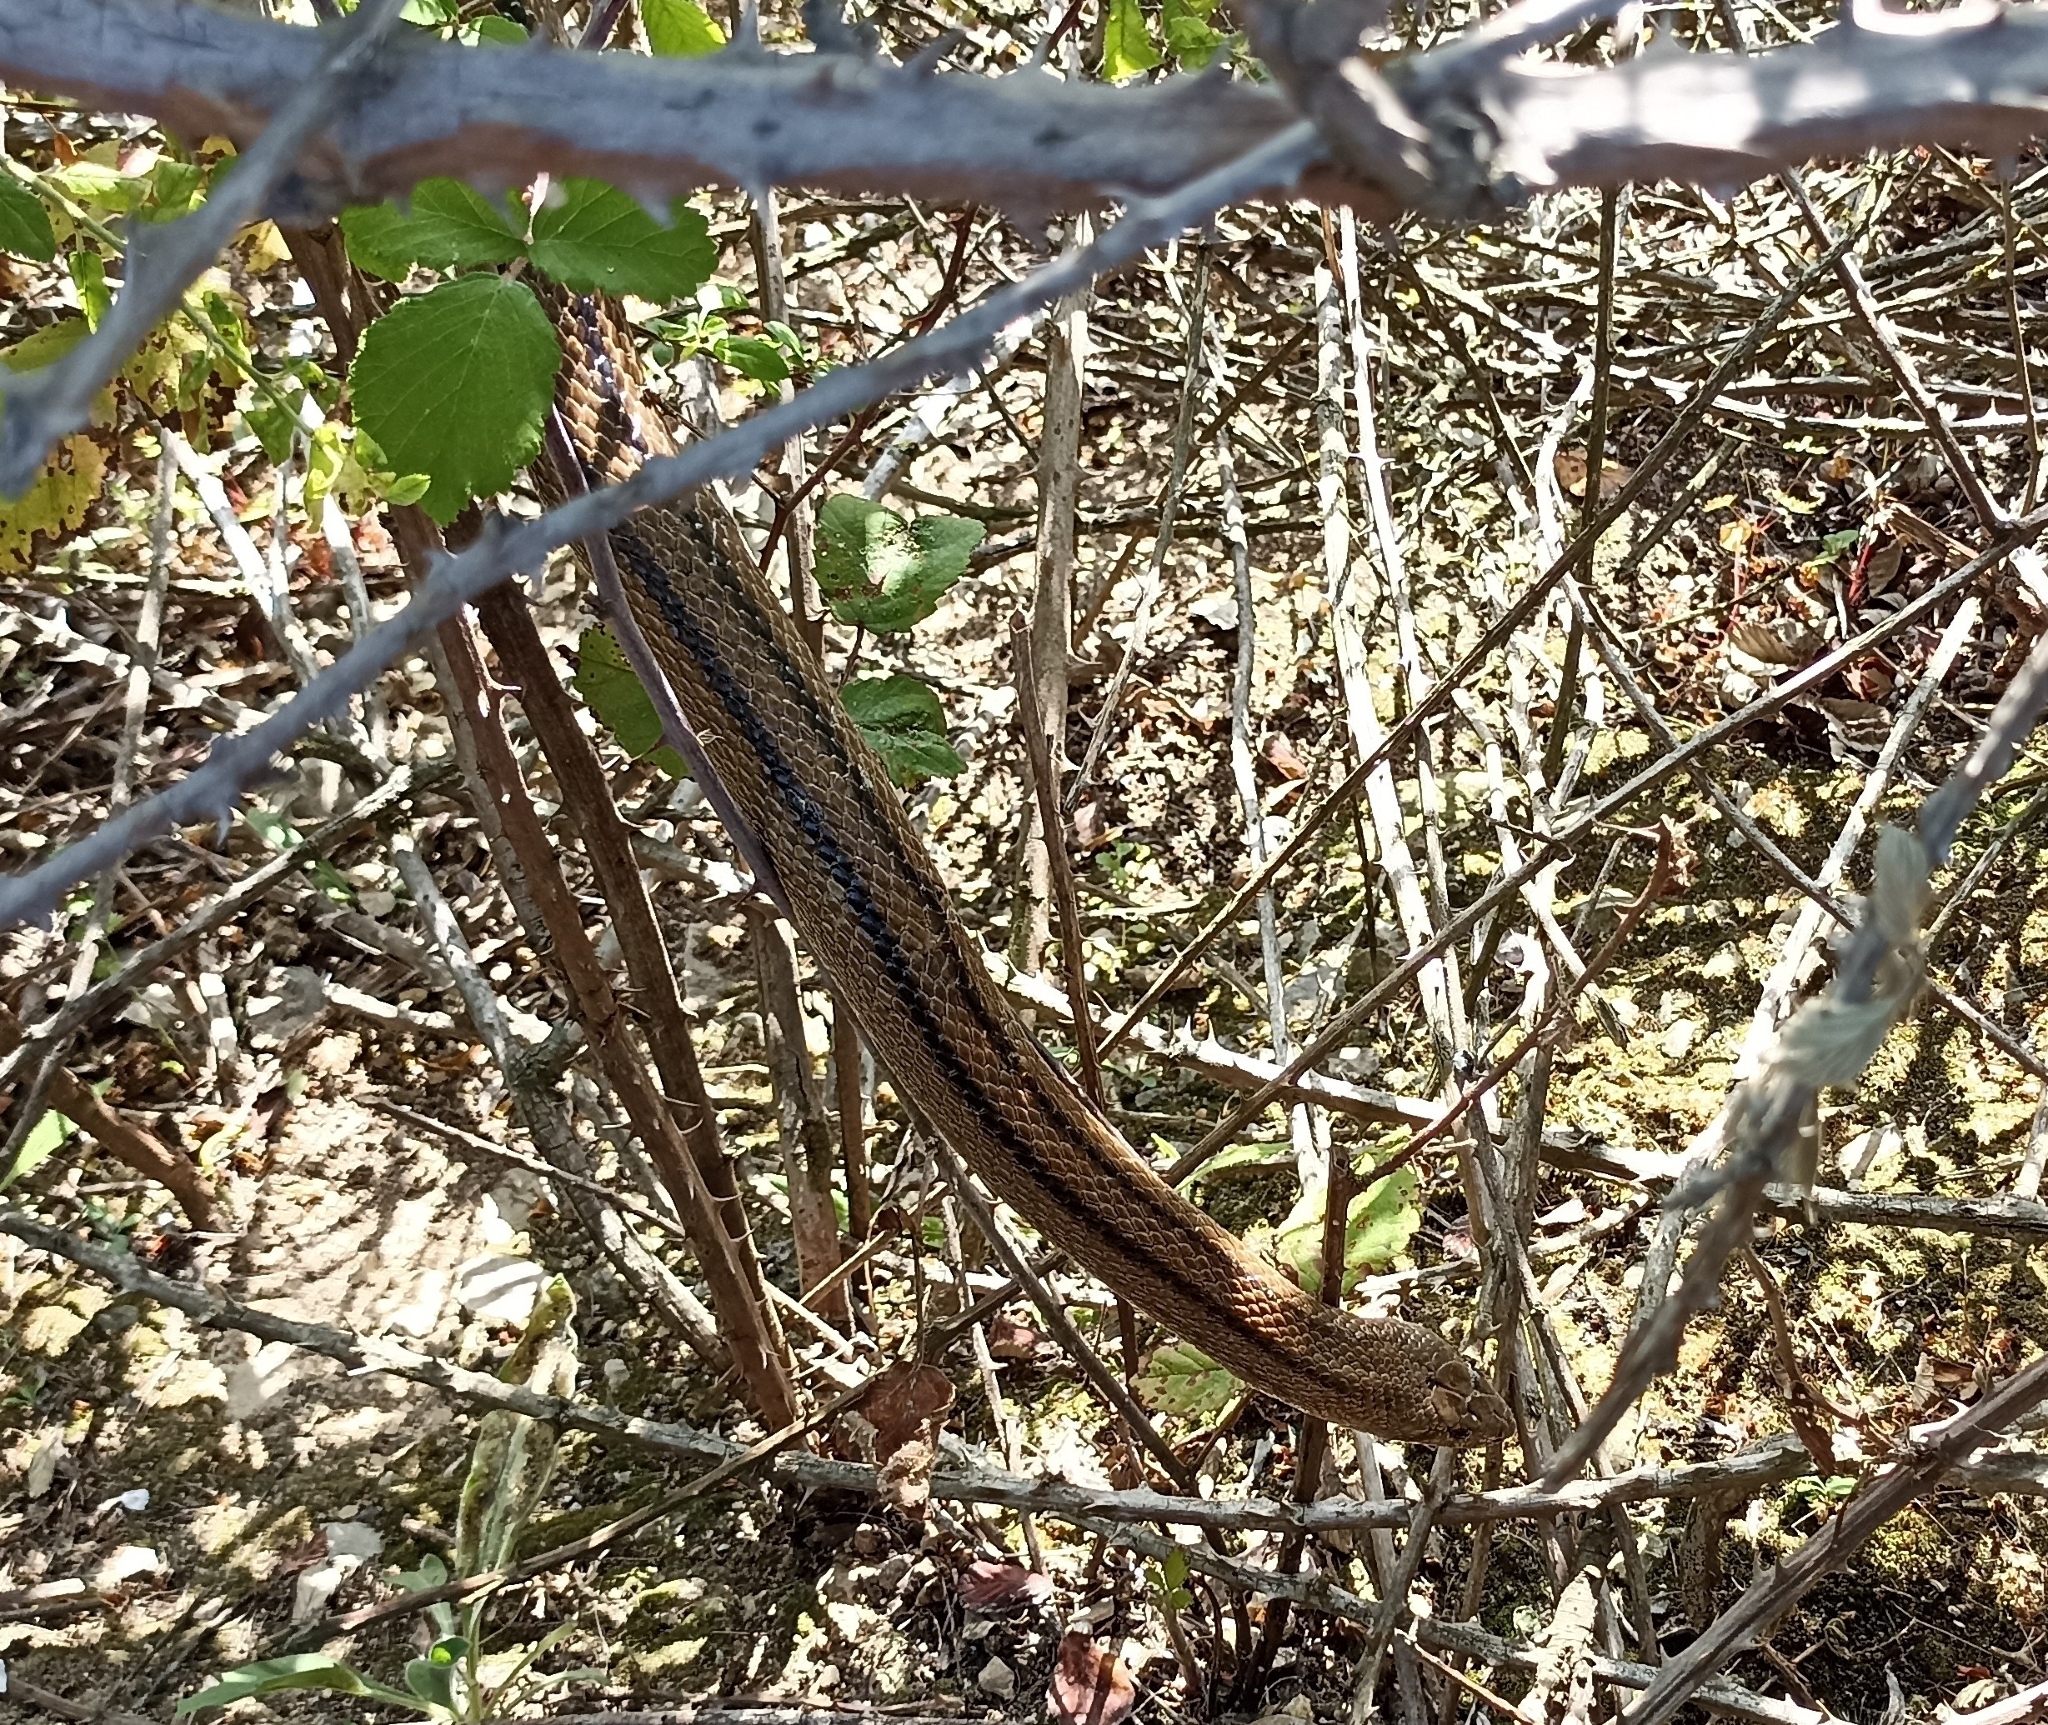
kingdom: Animalia
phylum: Chordata
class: Squamata
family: Colubridae
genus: Zamenis
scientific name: Zamenis scalaris
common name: Ladder snakes
